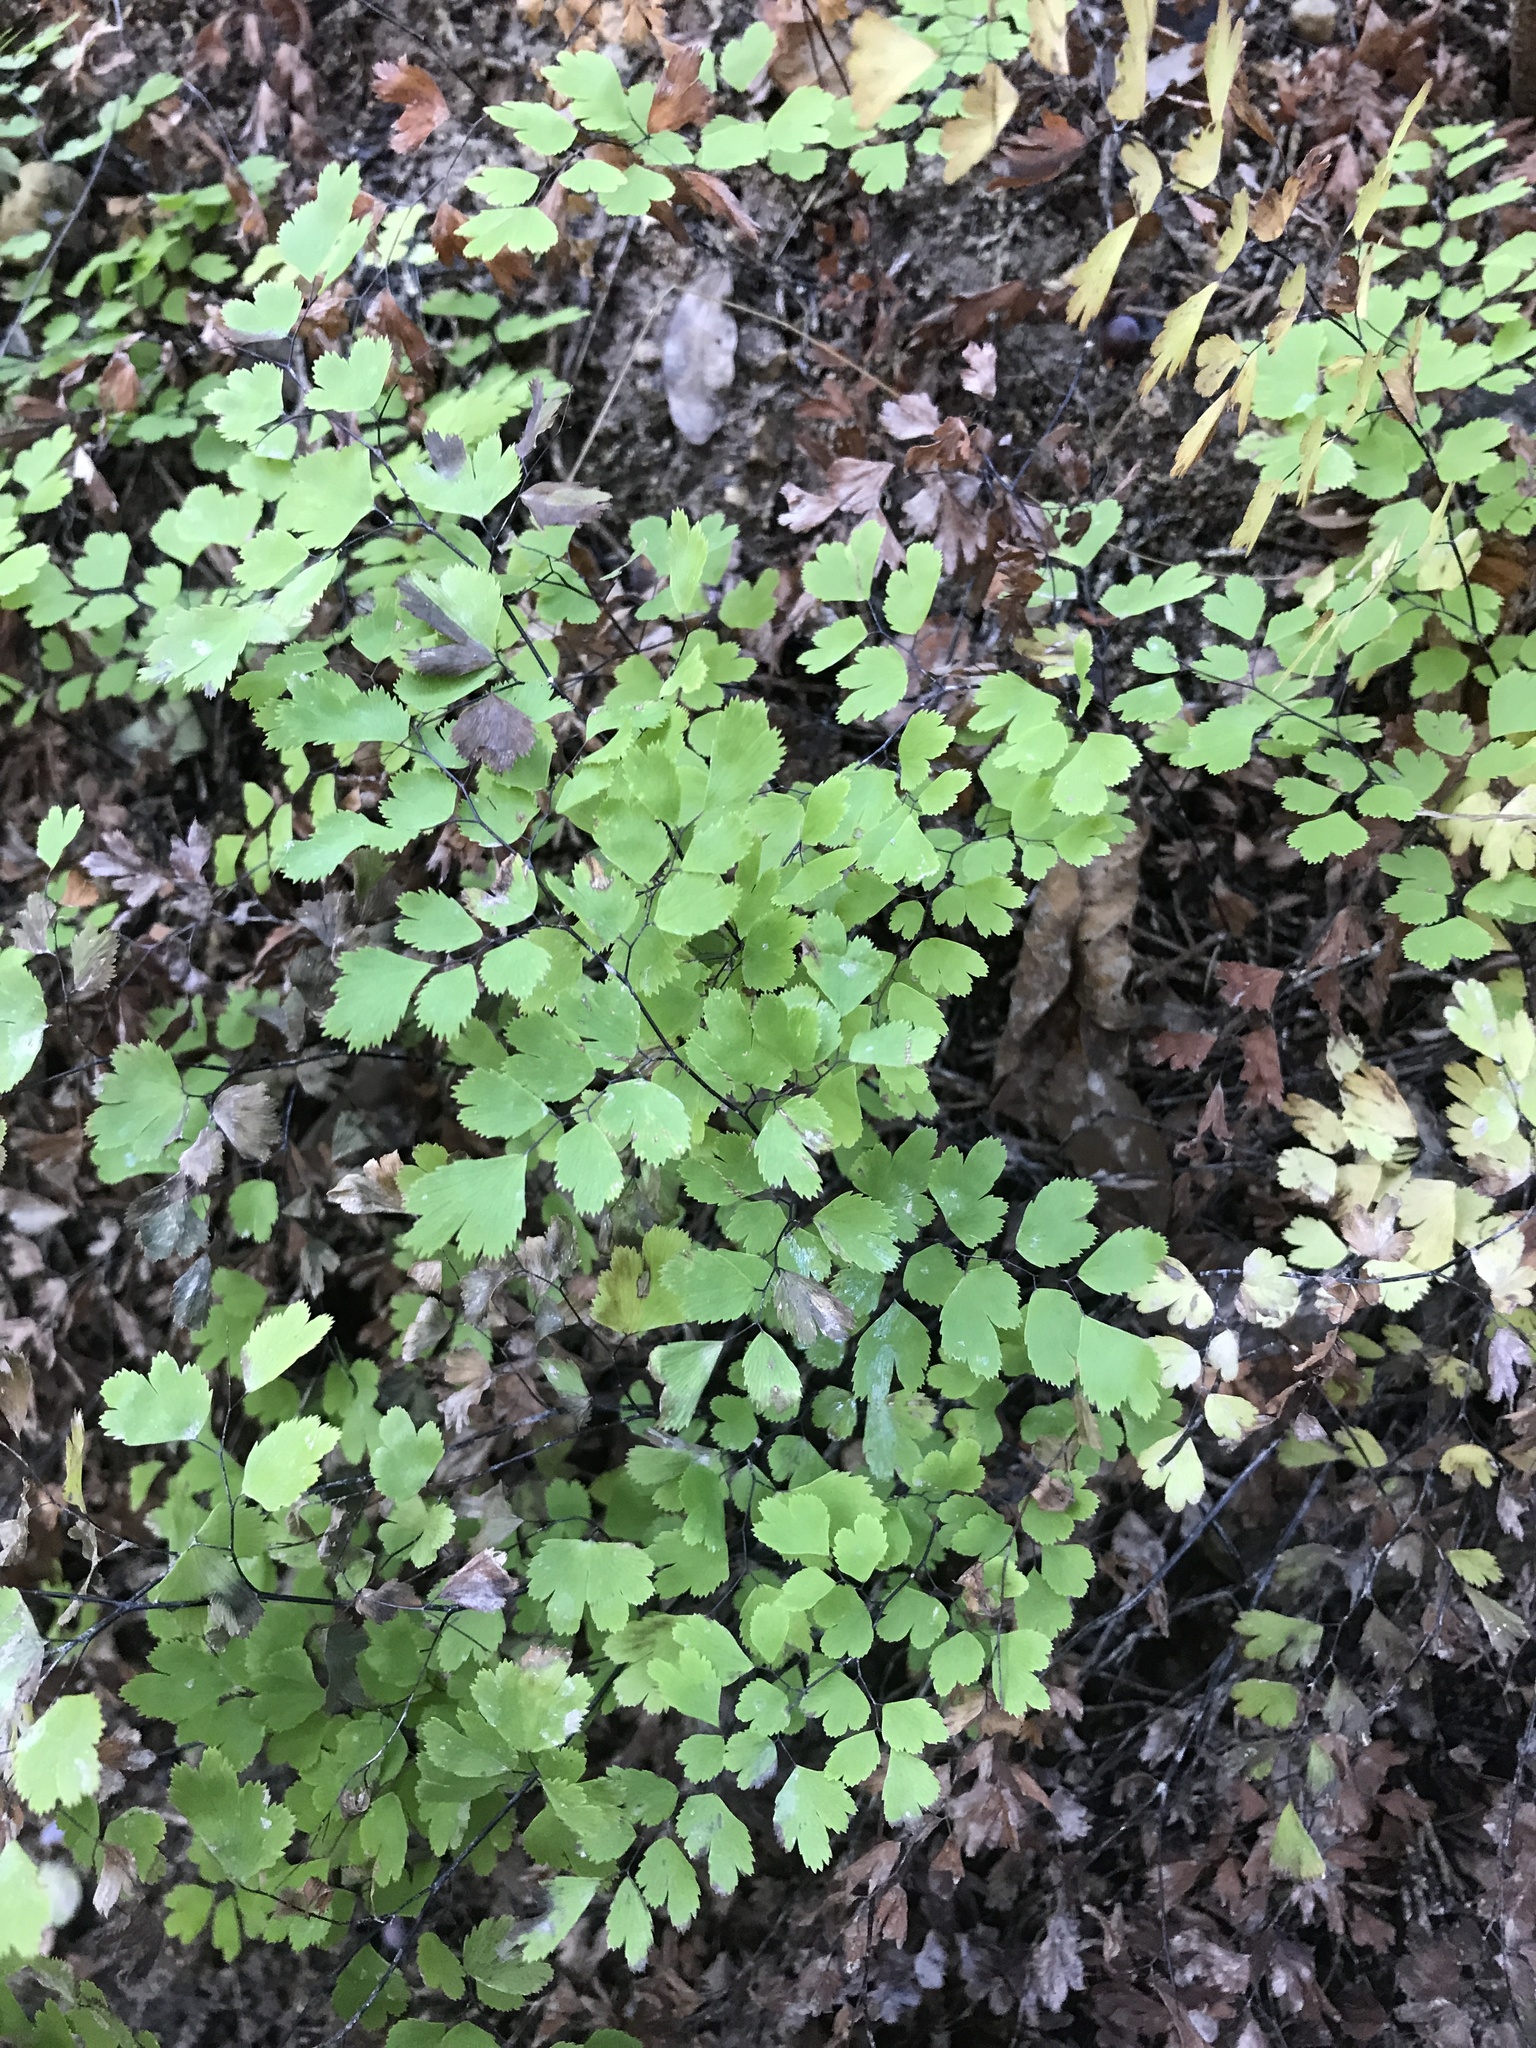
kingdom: Plantae
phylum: Tracheophyta
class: Polypodiopsida
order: Polypodiales
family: Pteridaceae
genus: Adiantum
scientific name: Adiantum capillus-veneris
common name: Maidenhair fern
